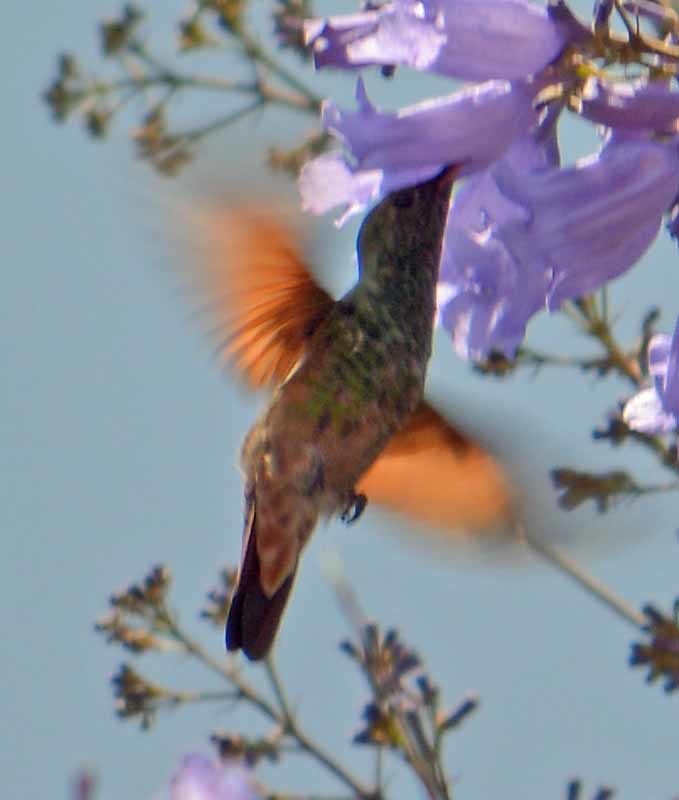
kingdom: Animalia
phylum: Chordata
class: Aves
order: Apodiformes
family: Trochilidae
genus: Saucerottia
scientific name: Saucerottia beryllina
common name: Berylline hummingbird
